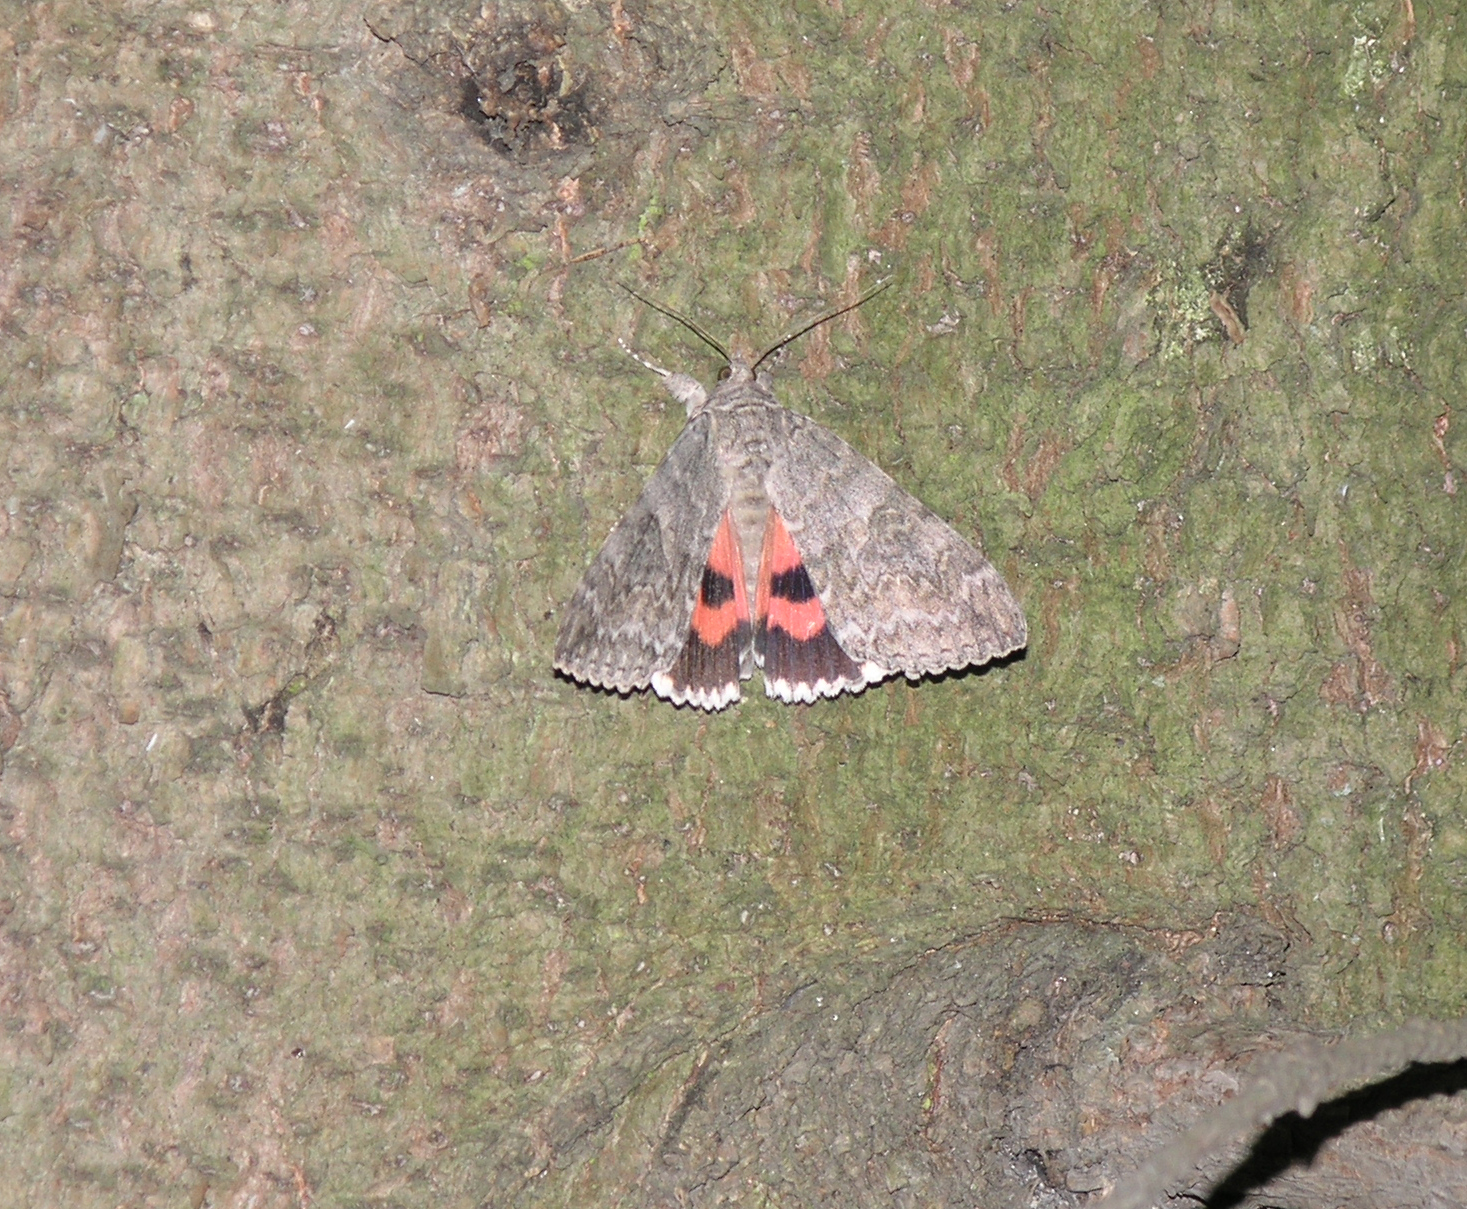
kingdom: Animalia
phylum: Arthropoda
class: Insecta
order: Lepidoptera
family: Erebidae
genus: Catocala
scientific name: Catocala nupta
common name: Red underwing
